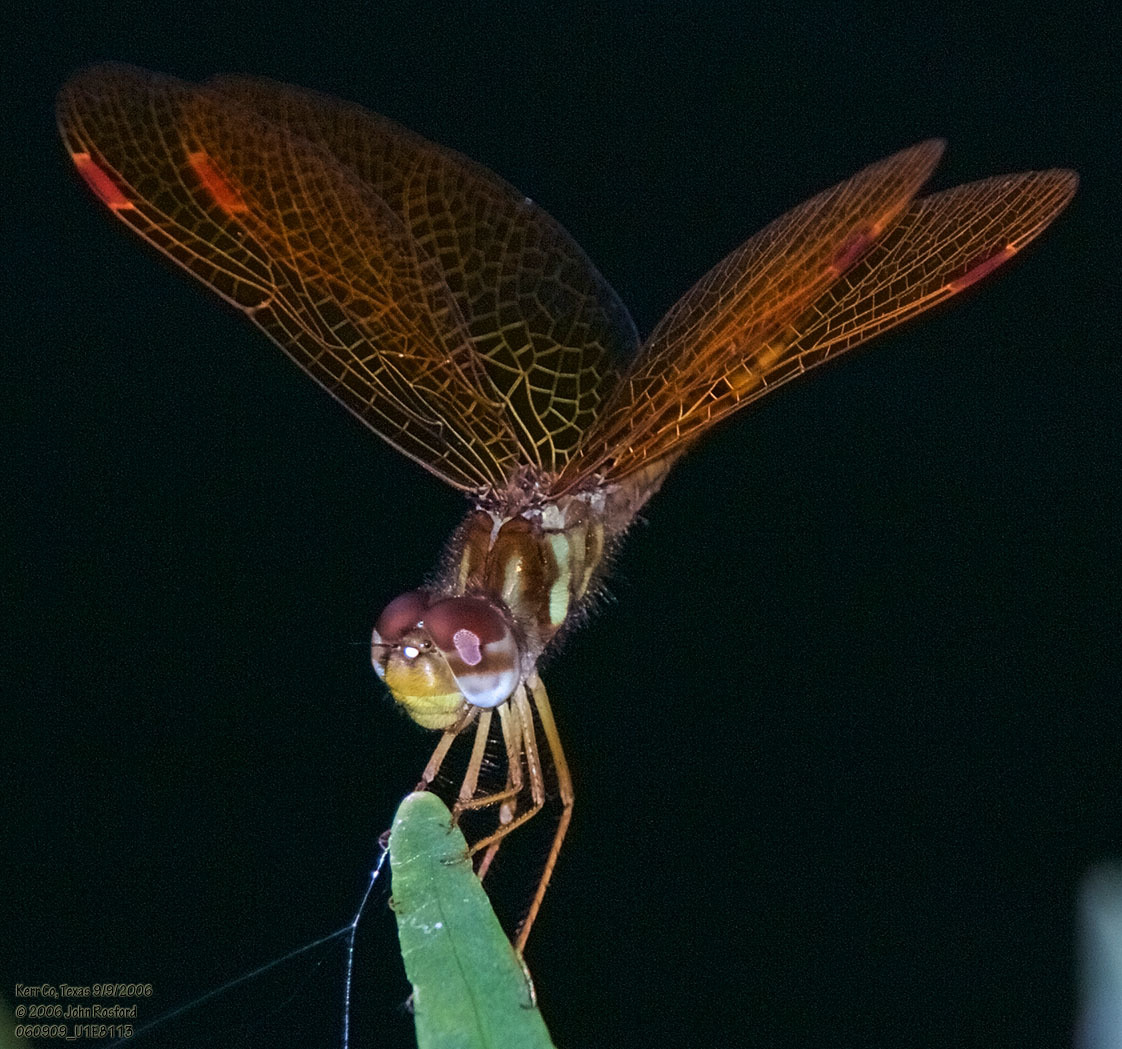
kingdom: Animalia
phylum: Arthropoda
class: Insecta
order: Odonata
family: Libellulidae
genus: Perithemis
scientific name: Perithemis tenera
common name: Eastern amberwing
